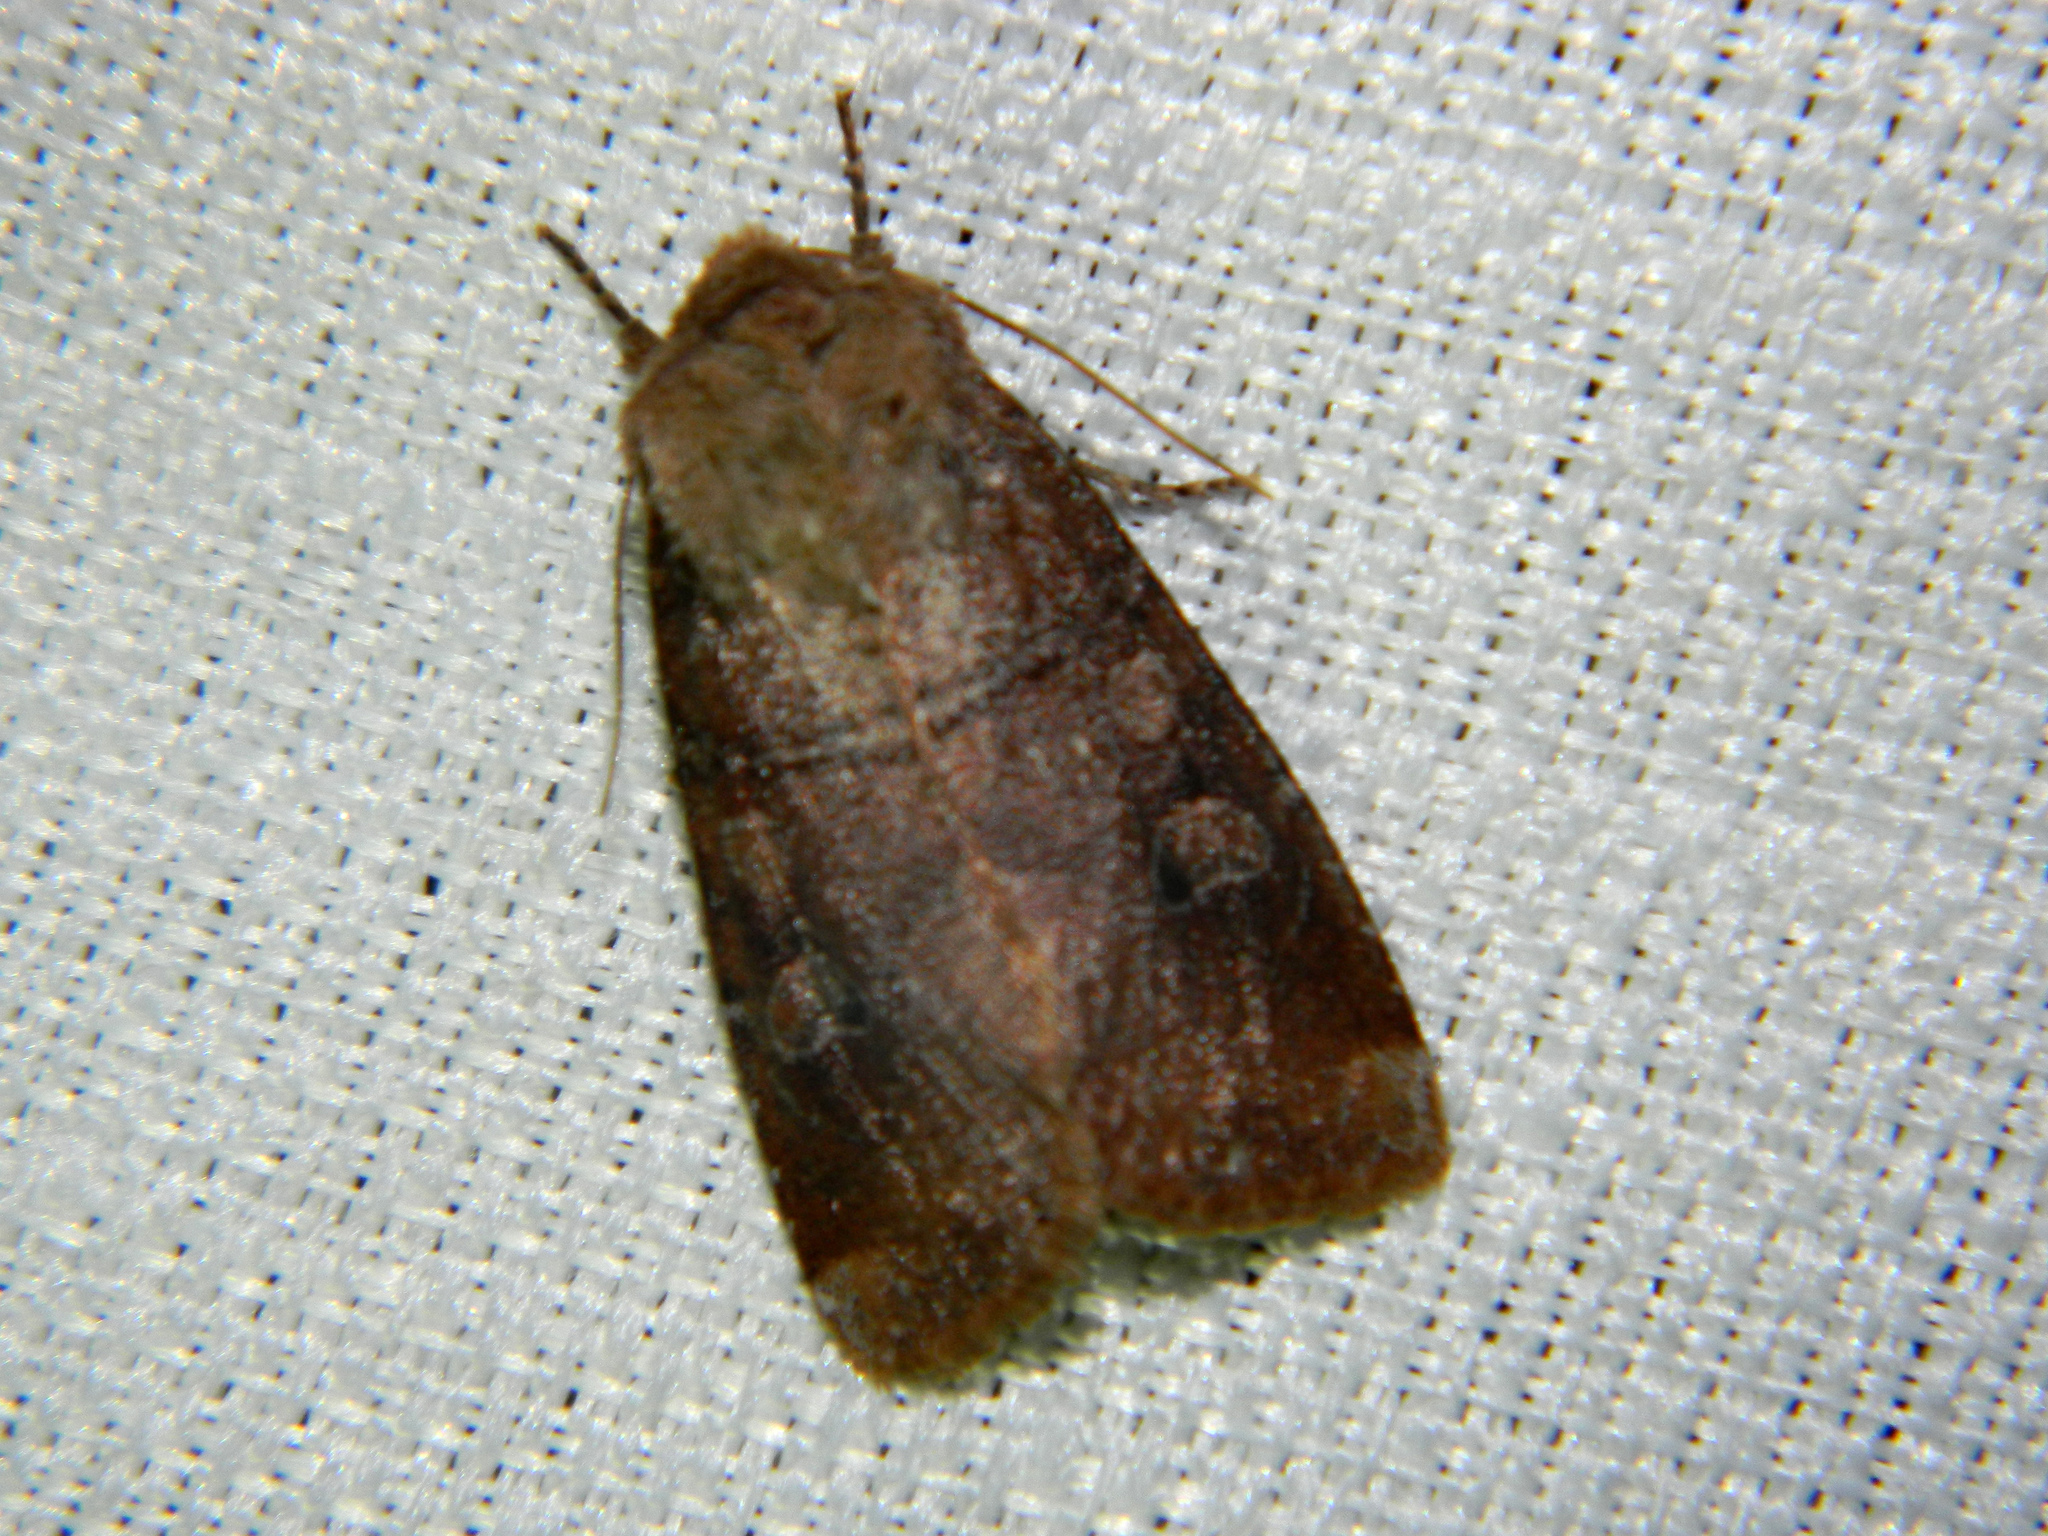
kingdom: Animalia
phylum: Arthropoda
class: Insecta
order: Lepidoptera
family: Noctuidae
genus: Crocigrapha
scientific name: Crocigrapha normani
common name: Norman's quaker
